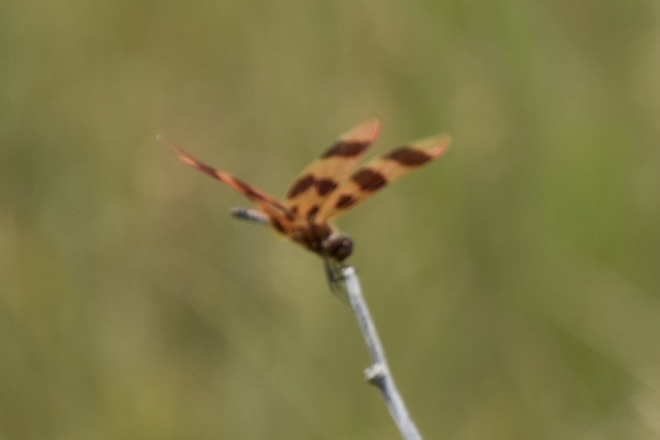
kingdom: Animalia
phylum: Arthropoda
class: Insecta
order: Odonata
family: Libellulidae
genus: Celithemis
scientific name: Celithemis eponina
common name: Halloween pennant
